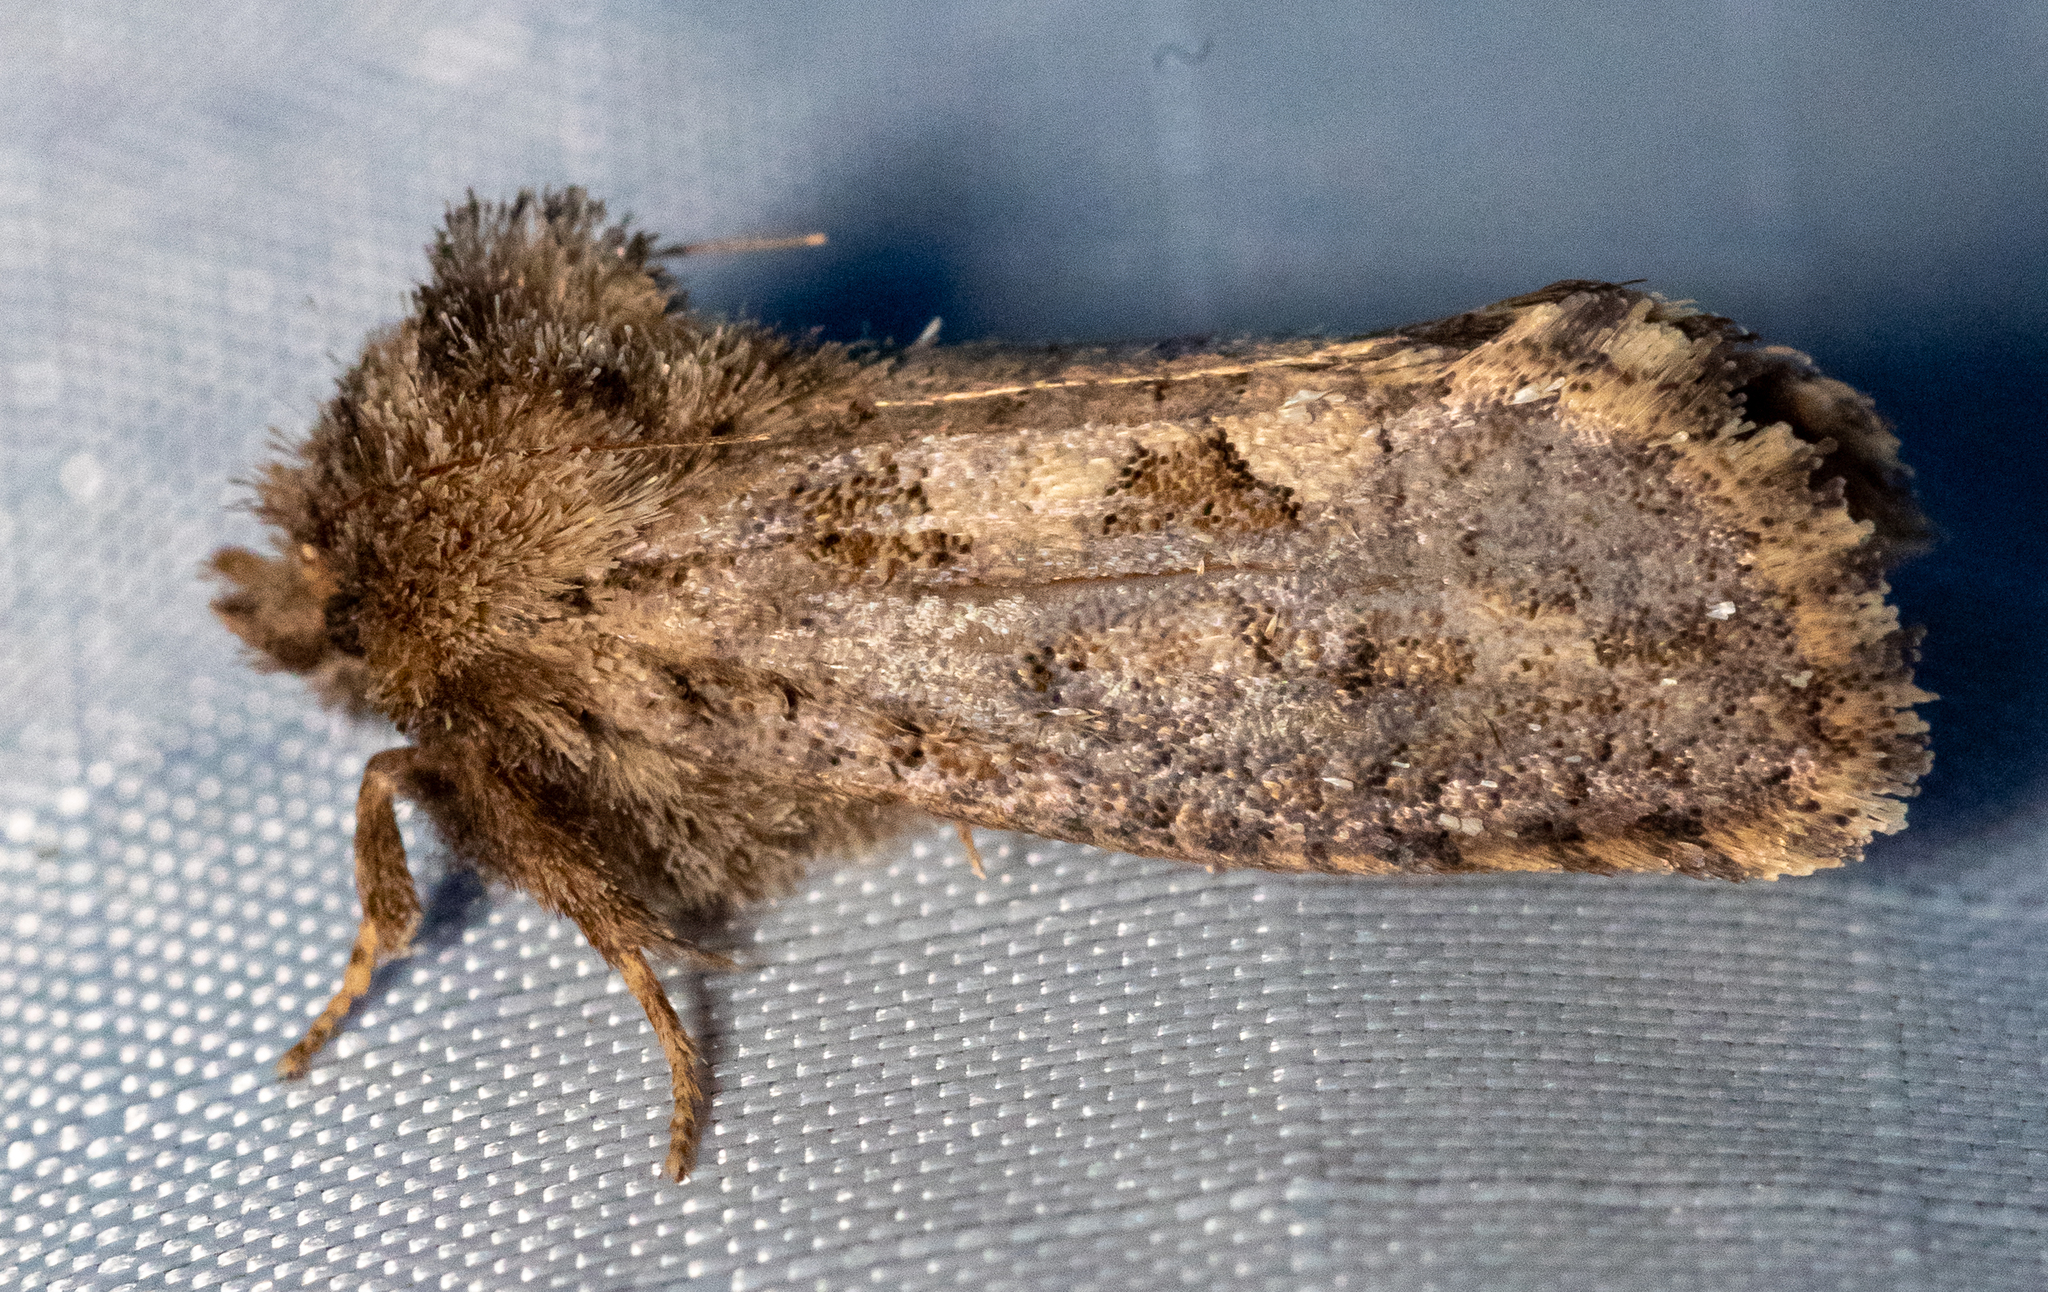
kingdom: Animalia
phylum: Arthropoda
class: Insecta
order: Lepidoptera
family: Tineidae
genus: Acrolophus
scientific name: Acrolophus arcanella
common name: Arcane grass tubeworm moth
